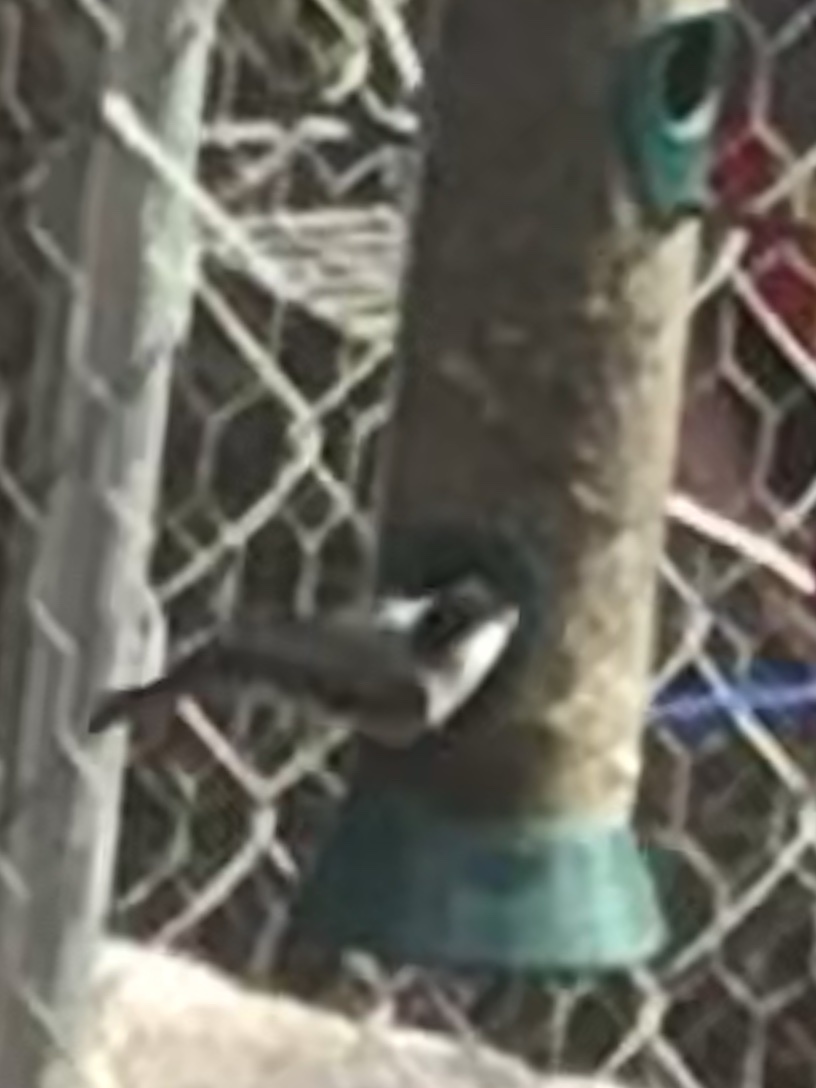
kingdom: Animalia
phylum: Chordata
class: Aves
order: Passeriformes
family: Paridae
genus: Poecile
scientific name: Poecile carolinensis
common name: Carolina chickadee
